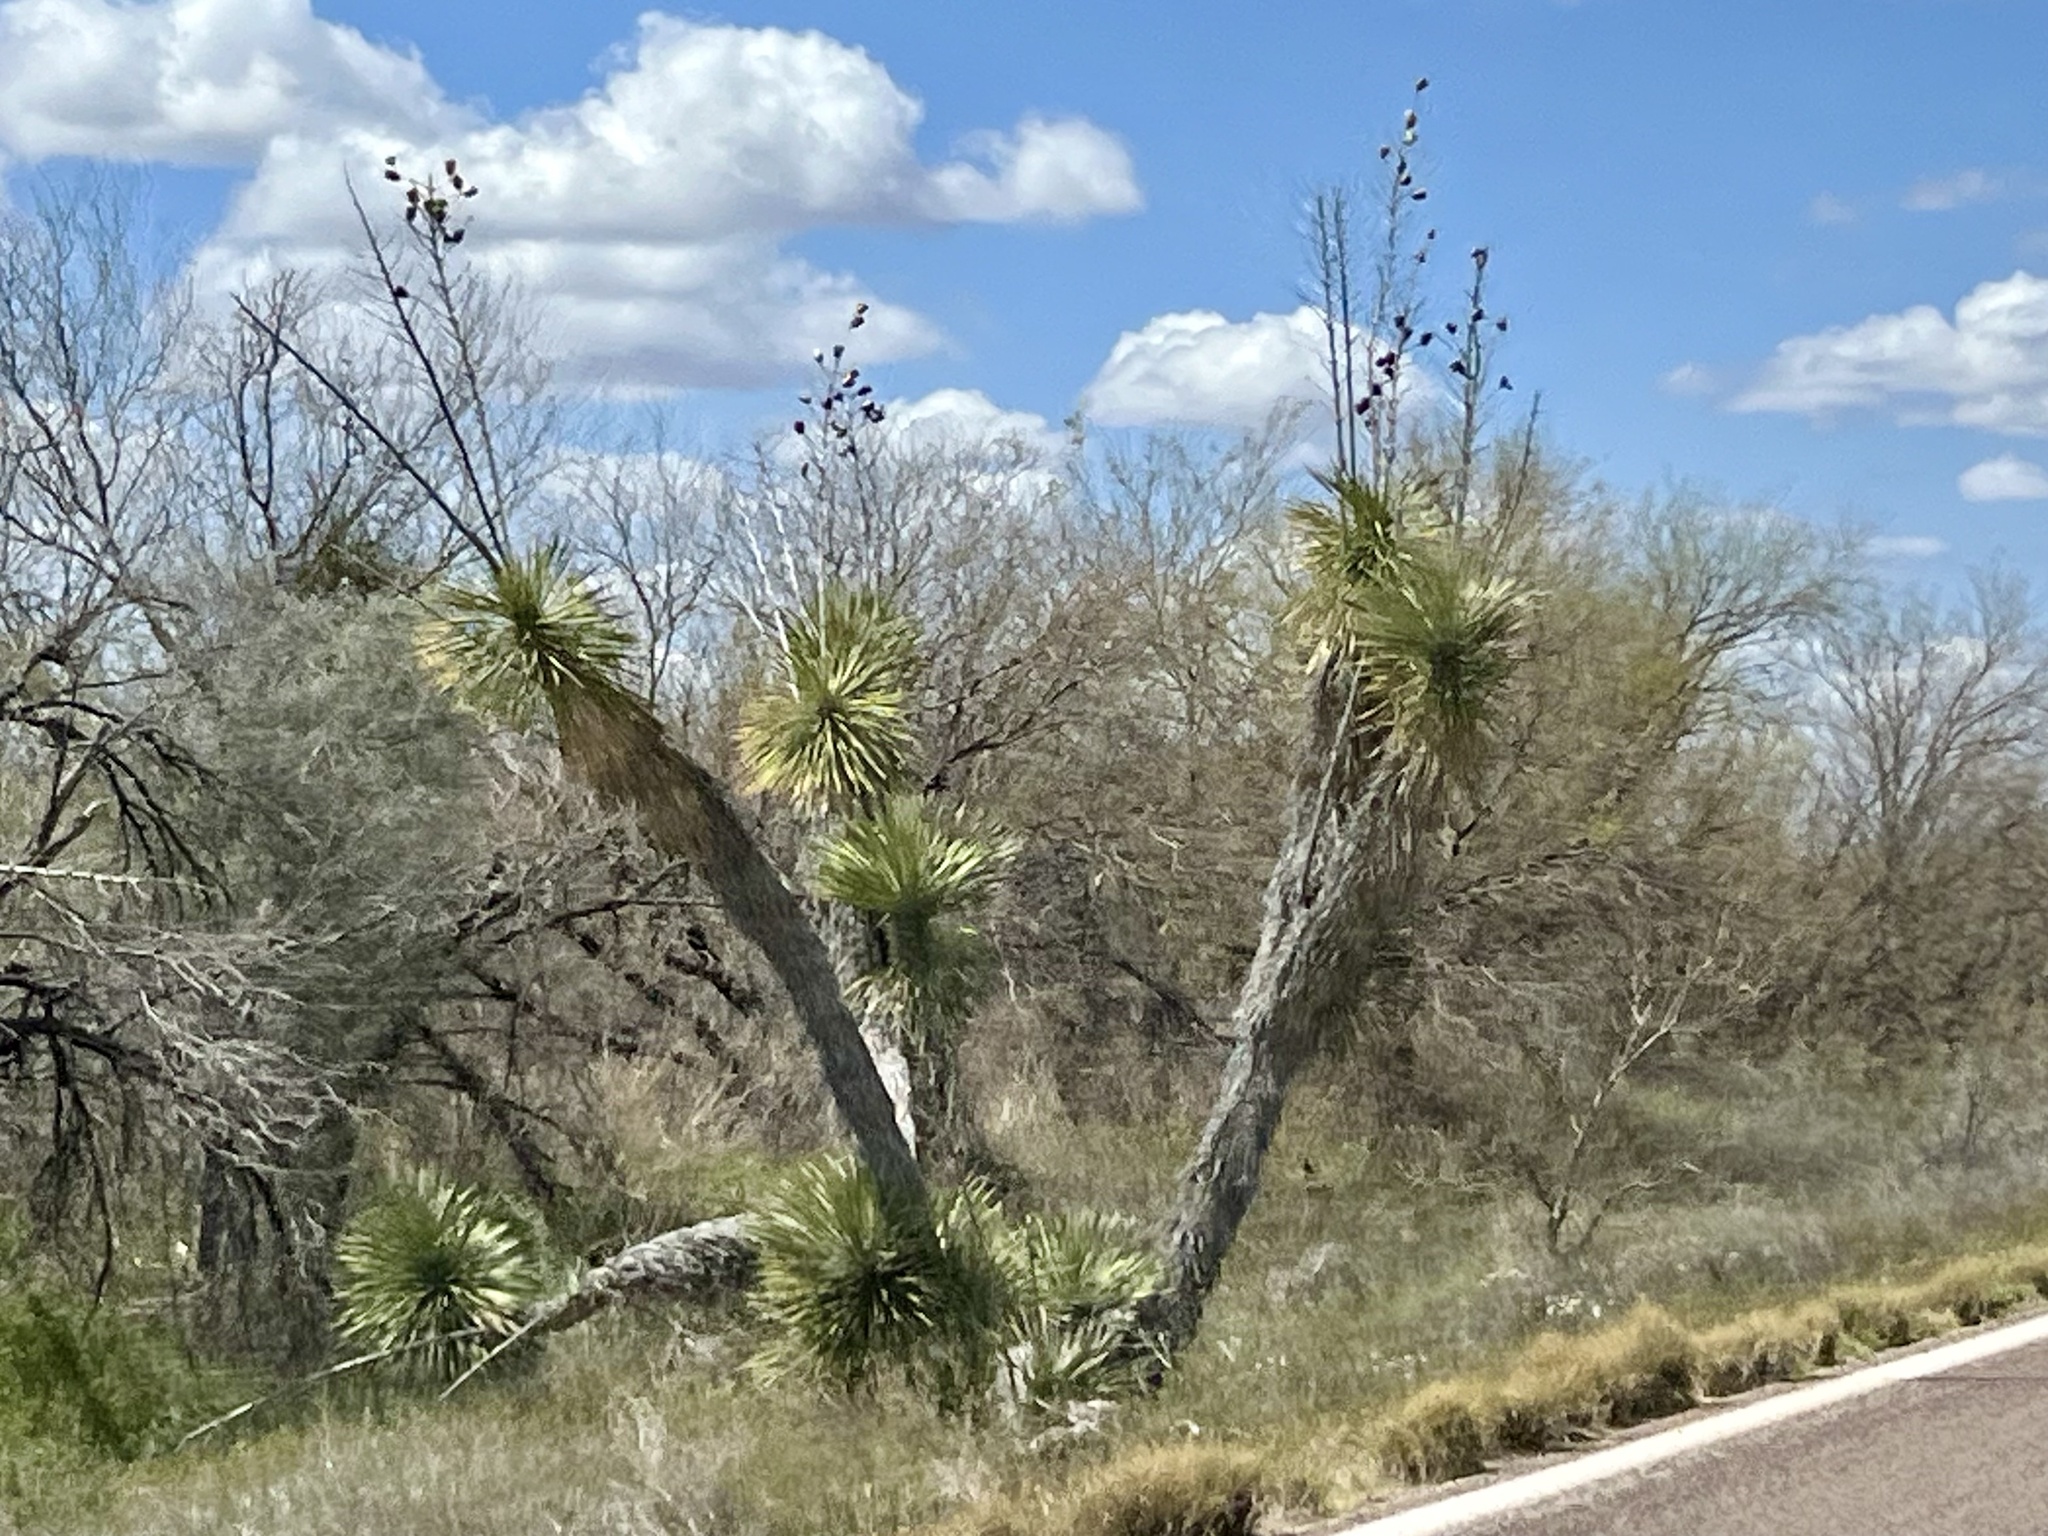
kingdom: Plantae
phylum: Tracheophyta
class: Liliopsida
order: Asparagales
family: Asparagaceae
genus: Yucca
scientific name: Yucca elata
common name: Palmella
